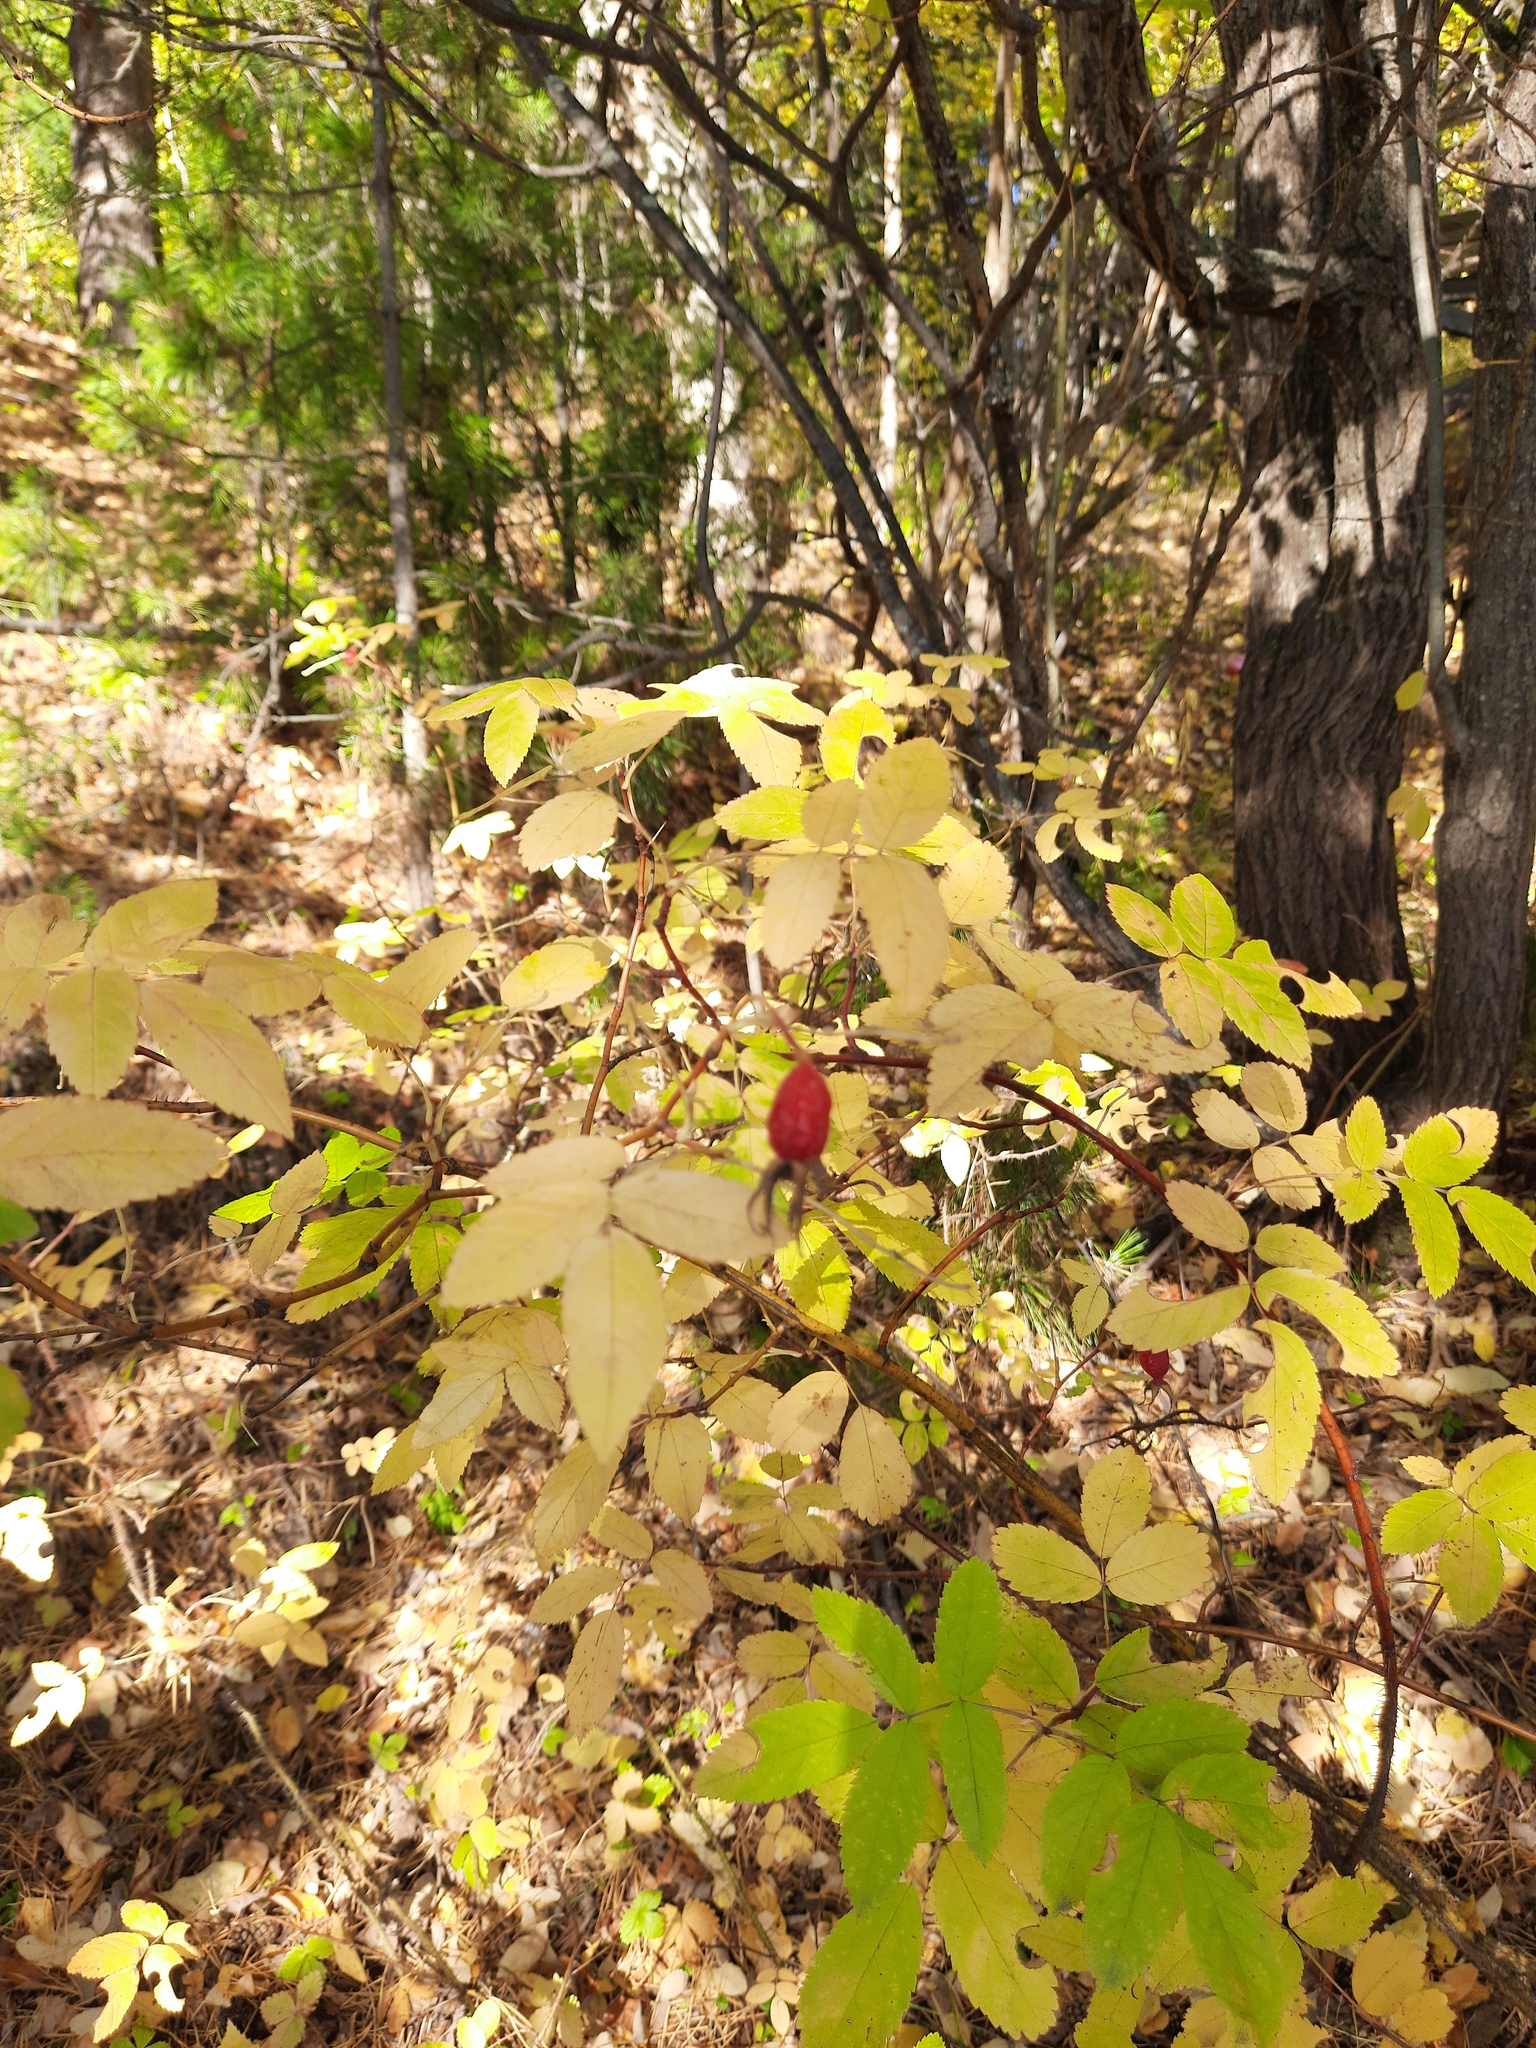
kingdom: Plantae
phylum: Tracheophyta
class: Magnoliopsida
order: Rosales
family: Rosaceae
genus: Rosa
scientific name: Rosa acicularis
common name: Prickly rose
